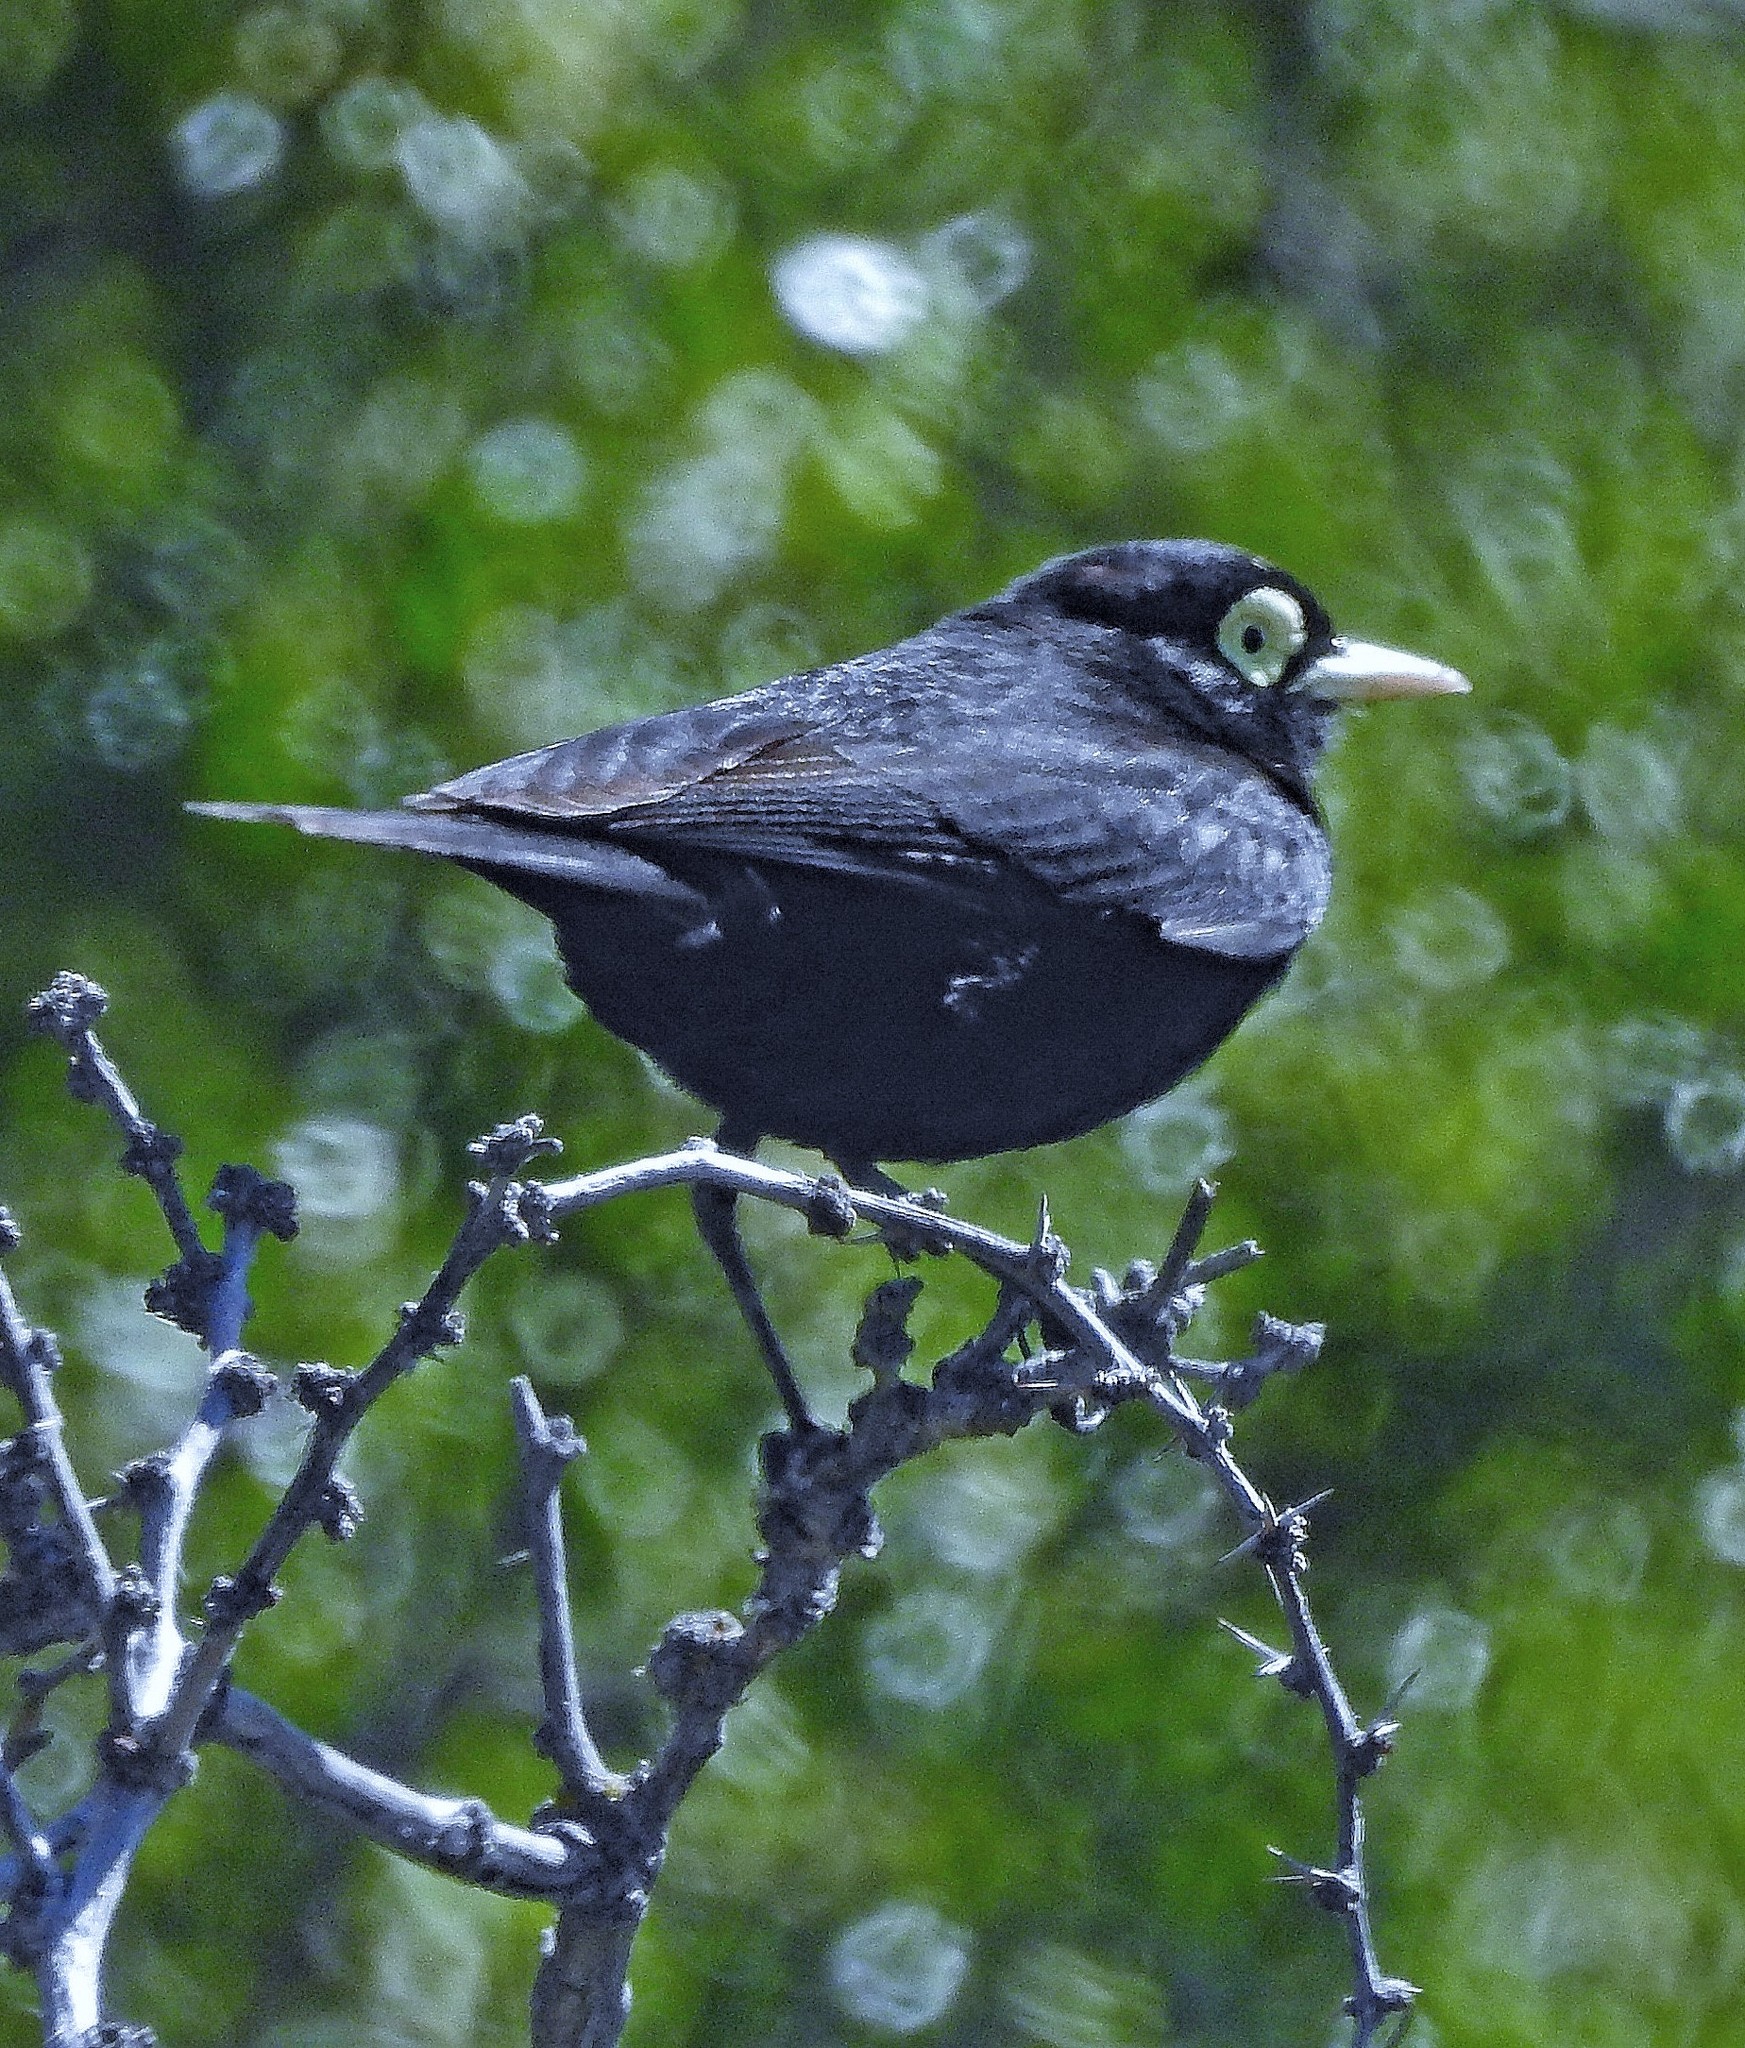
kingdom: Animalia
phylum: Chordata
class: Aves
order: Passeriformes
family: Tyrannidae
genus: Hymenops
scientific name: Hymenops perspicillatus
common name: Spectacled tyrant
